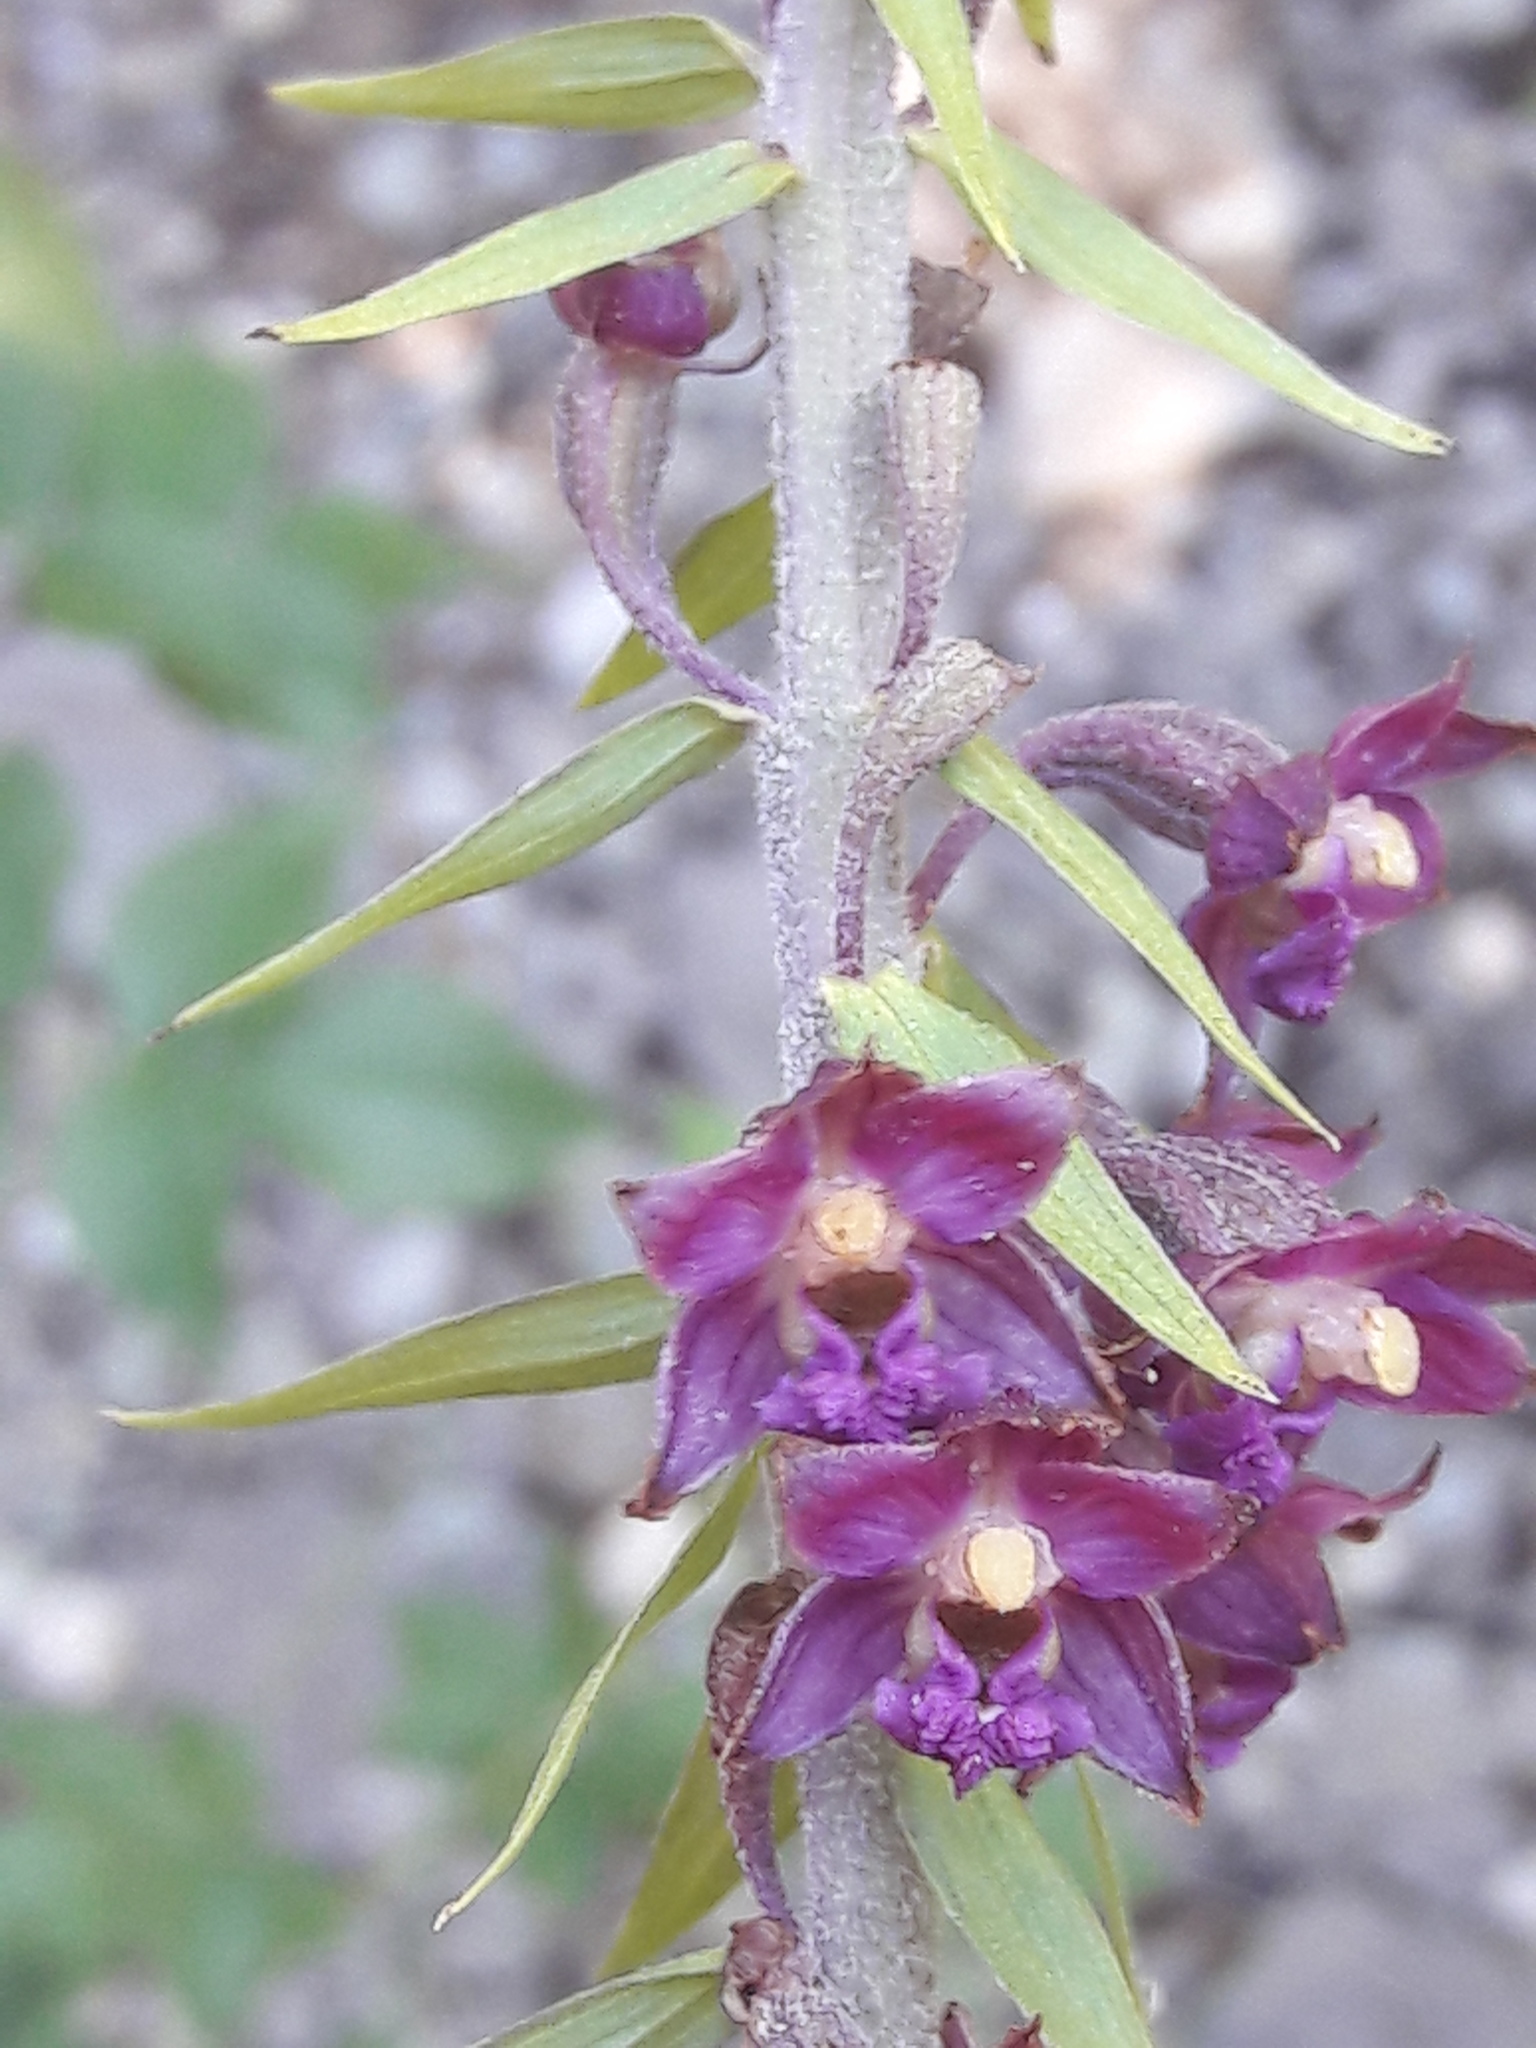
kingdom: Plantae
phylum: Tracheophyta
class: Liliopsida
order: Asparagales
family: Orchidaceae
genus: Epipactis
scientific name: Epipactis atrorubens
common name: Dark-red helleborine
